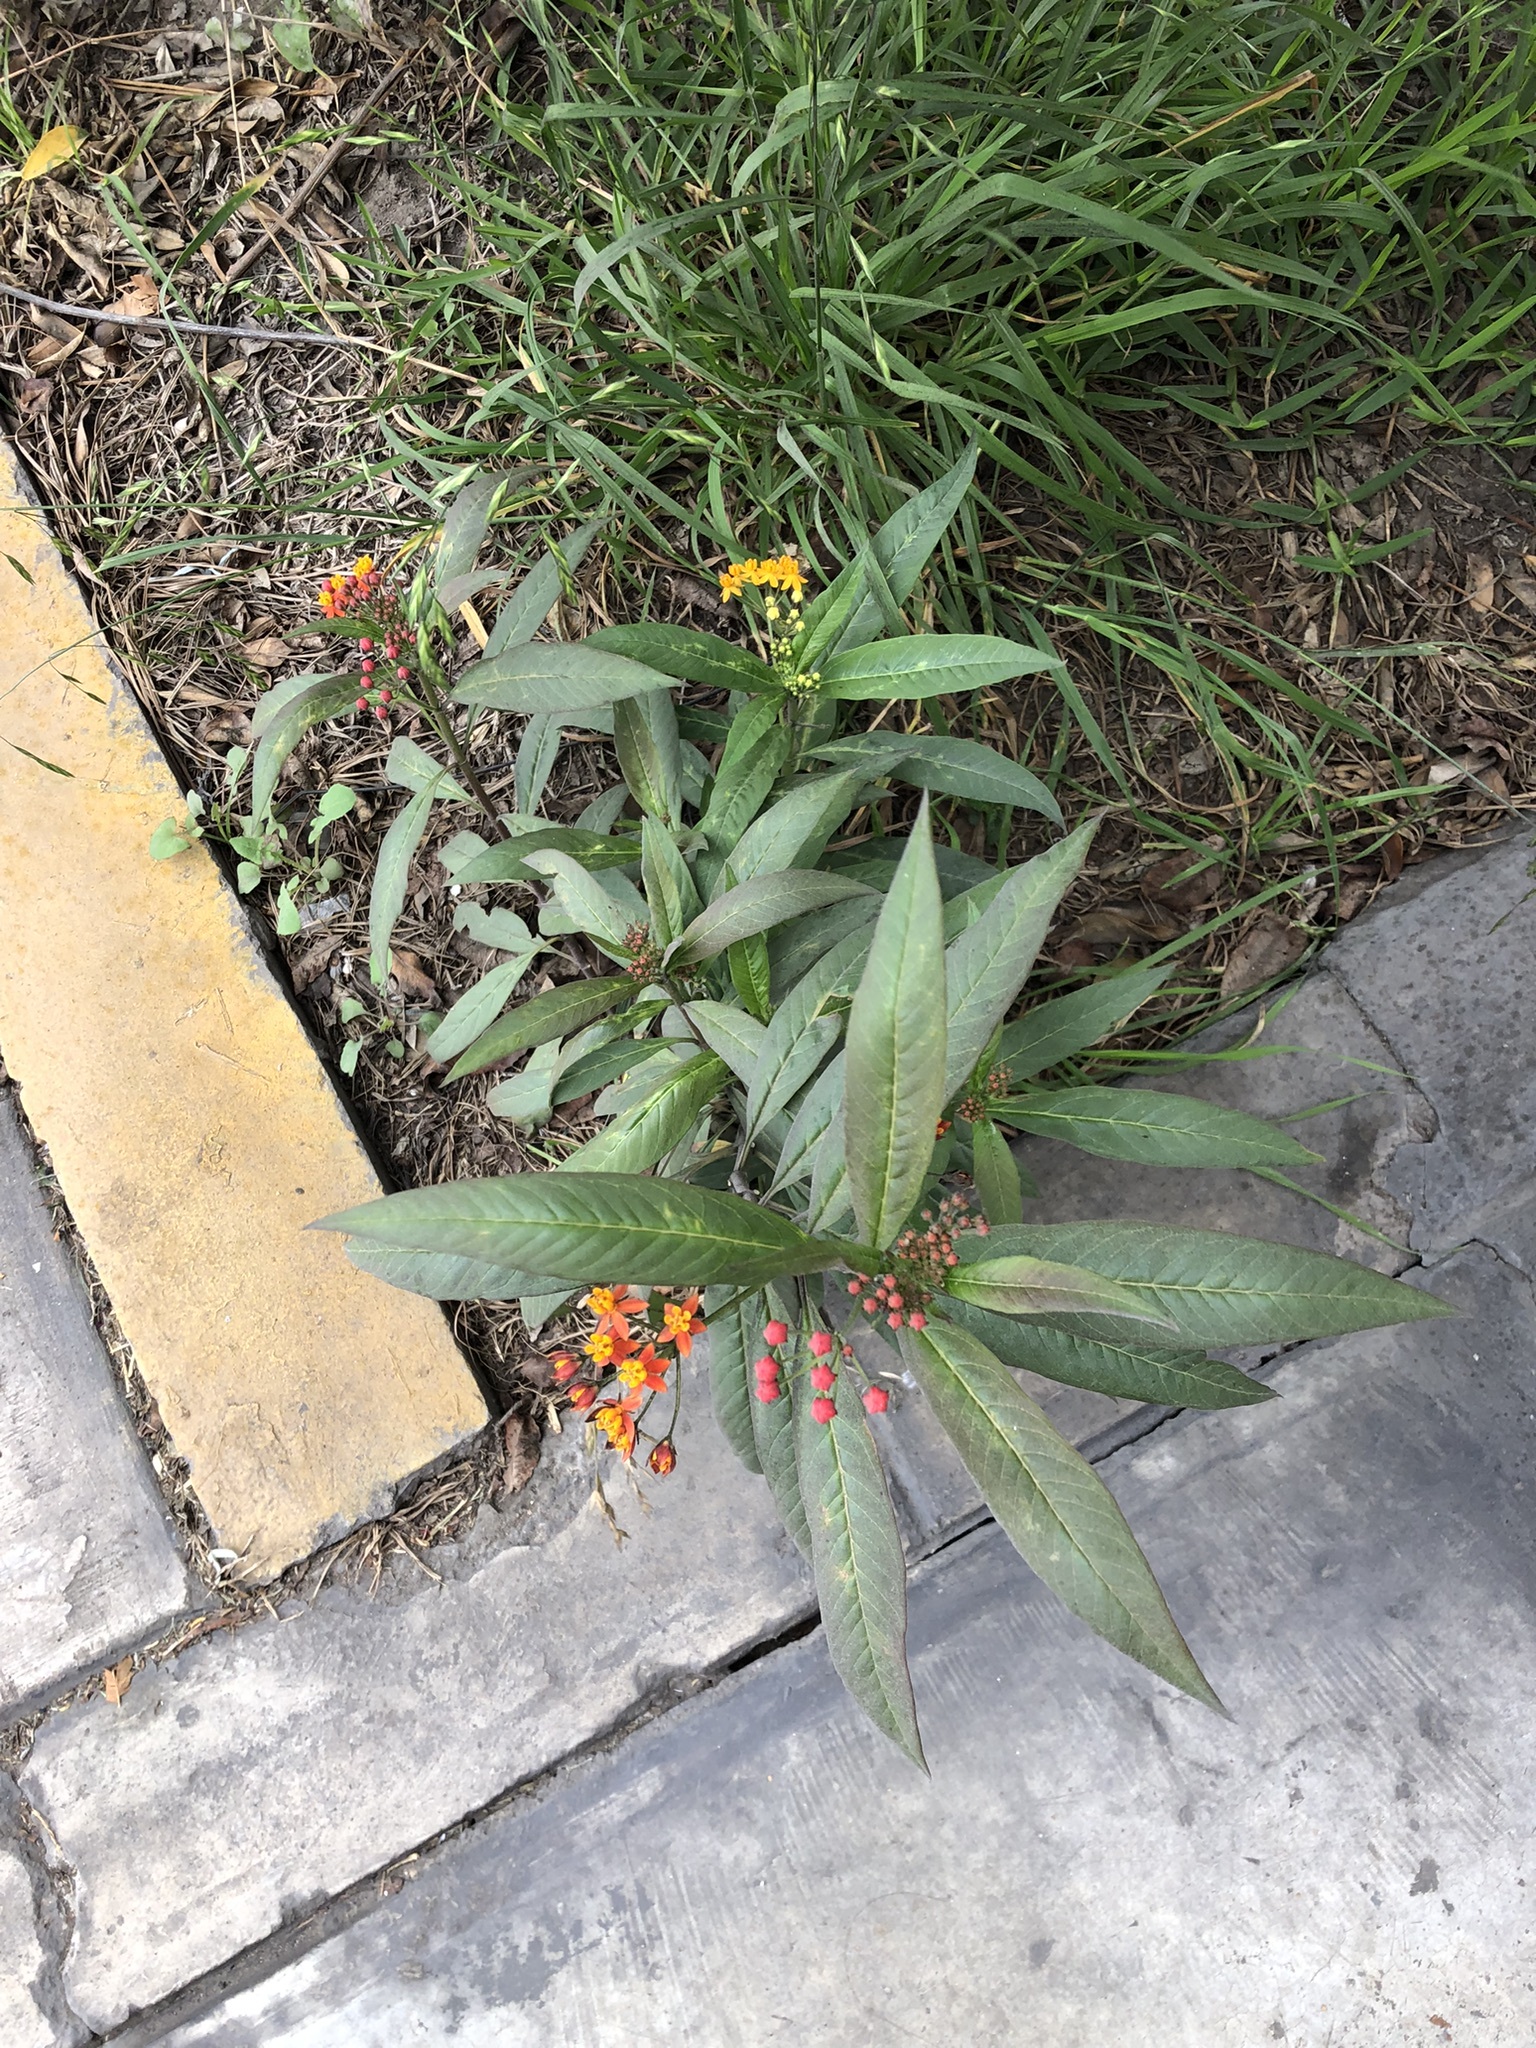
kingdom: Plantae
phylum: Tracheophyta
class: Magnoliopsida
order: Gentianales
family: Apocynaceae
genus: Asclepias
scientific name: Asclepias curassavica
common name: Bloodflower
